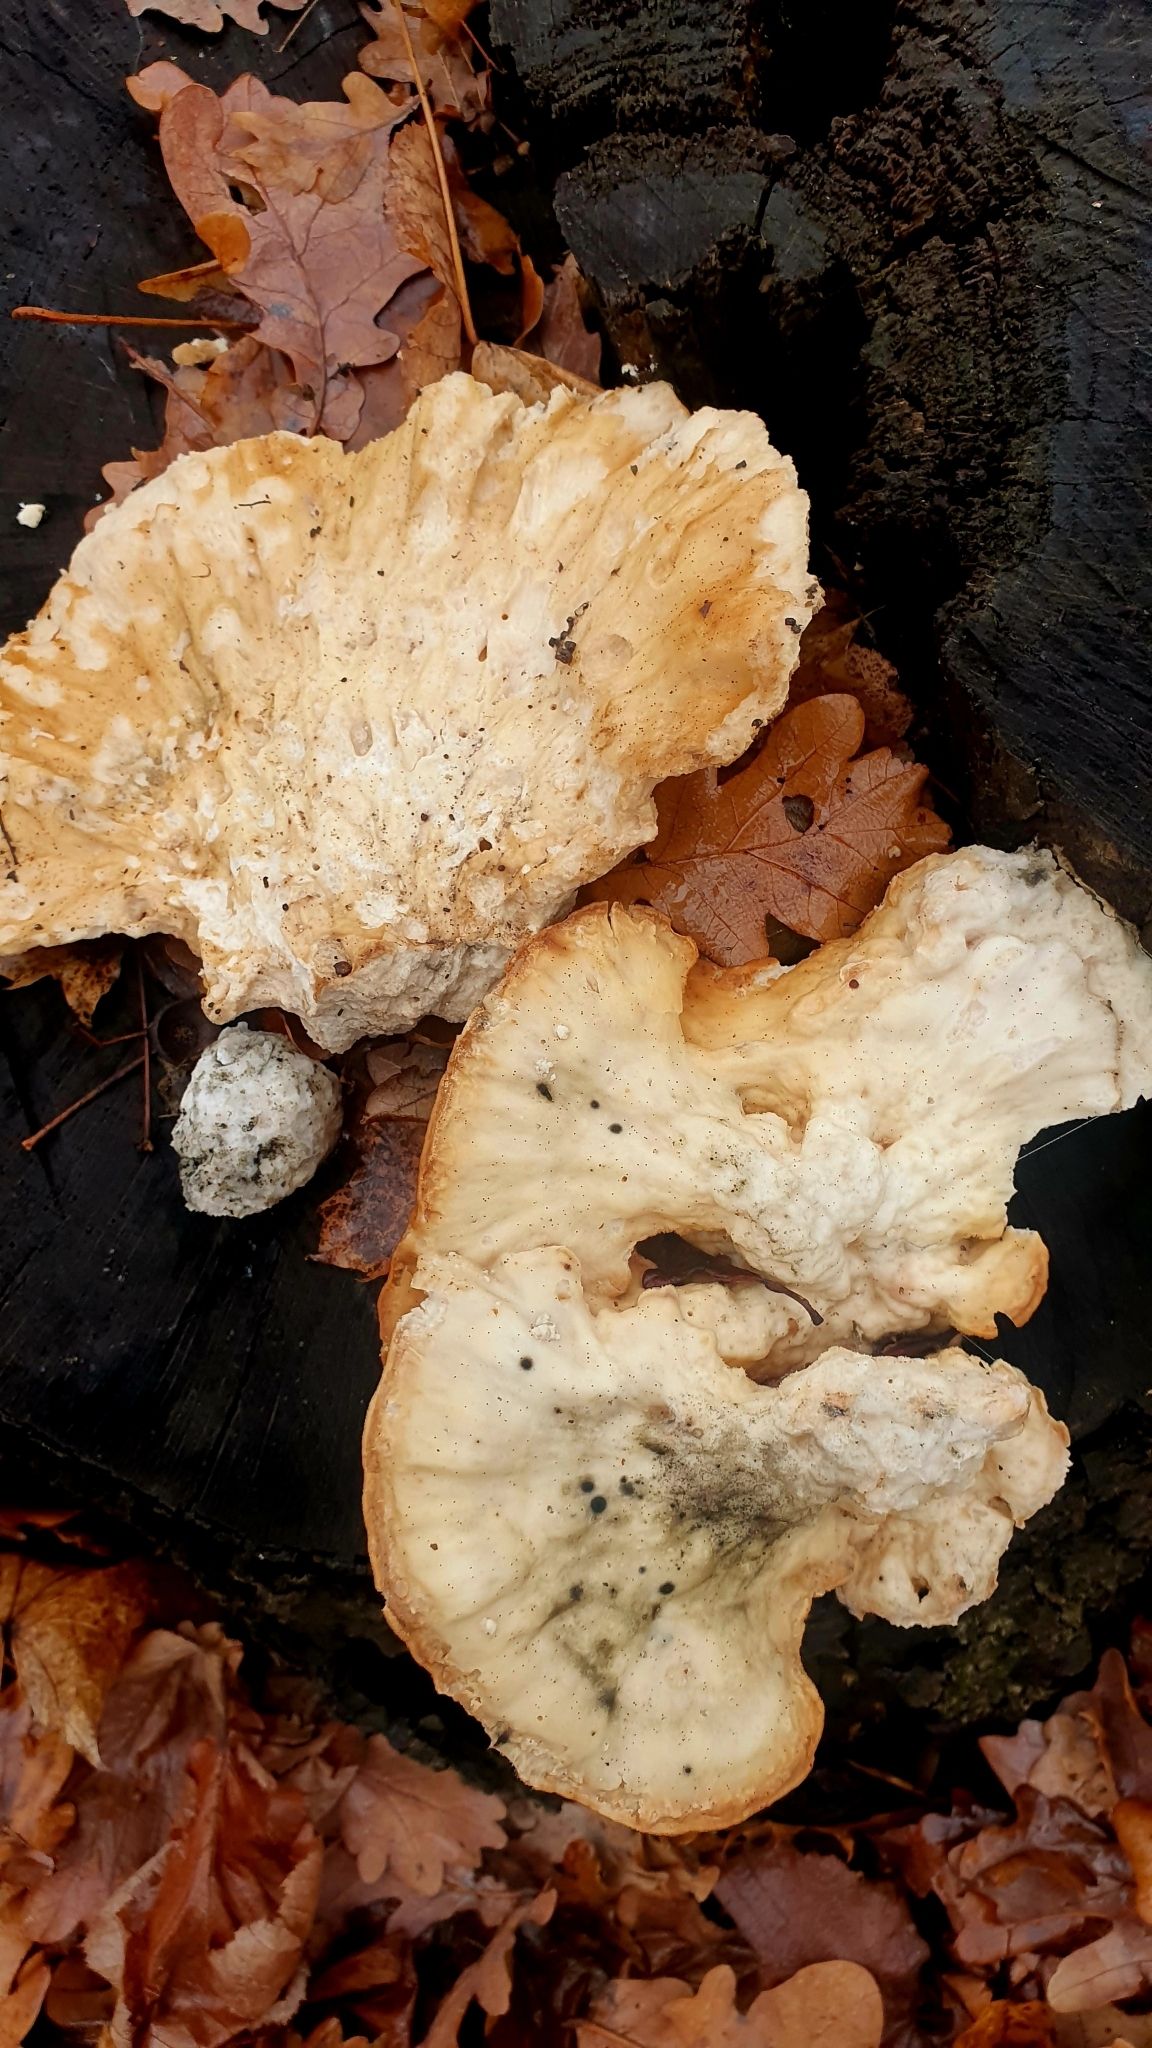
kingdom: Fungi
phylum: Basidiomycota
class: Agaricomycetes
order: Polyporales
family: Laetiporaceae
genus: Laetiporus
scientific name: Laetiporus sulphureus
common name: Chicken of the woods
